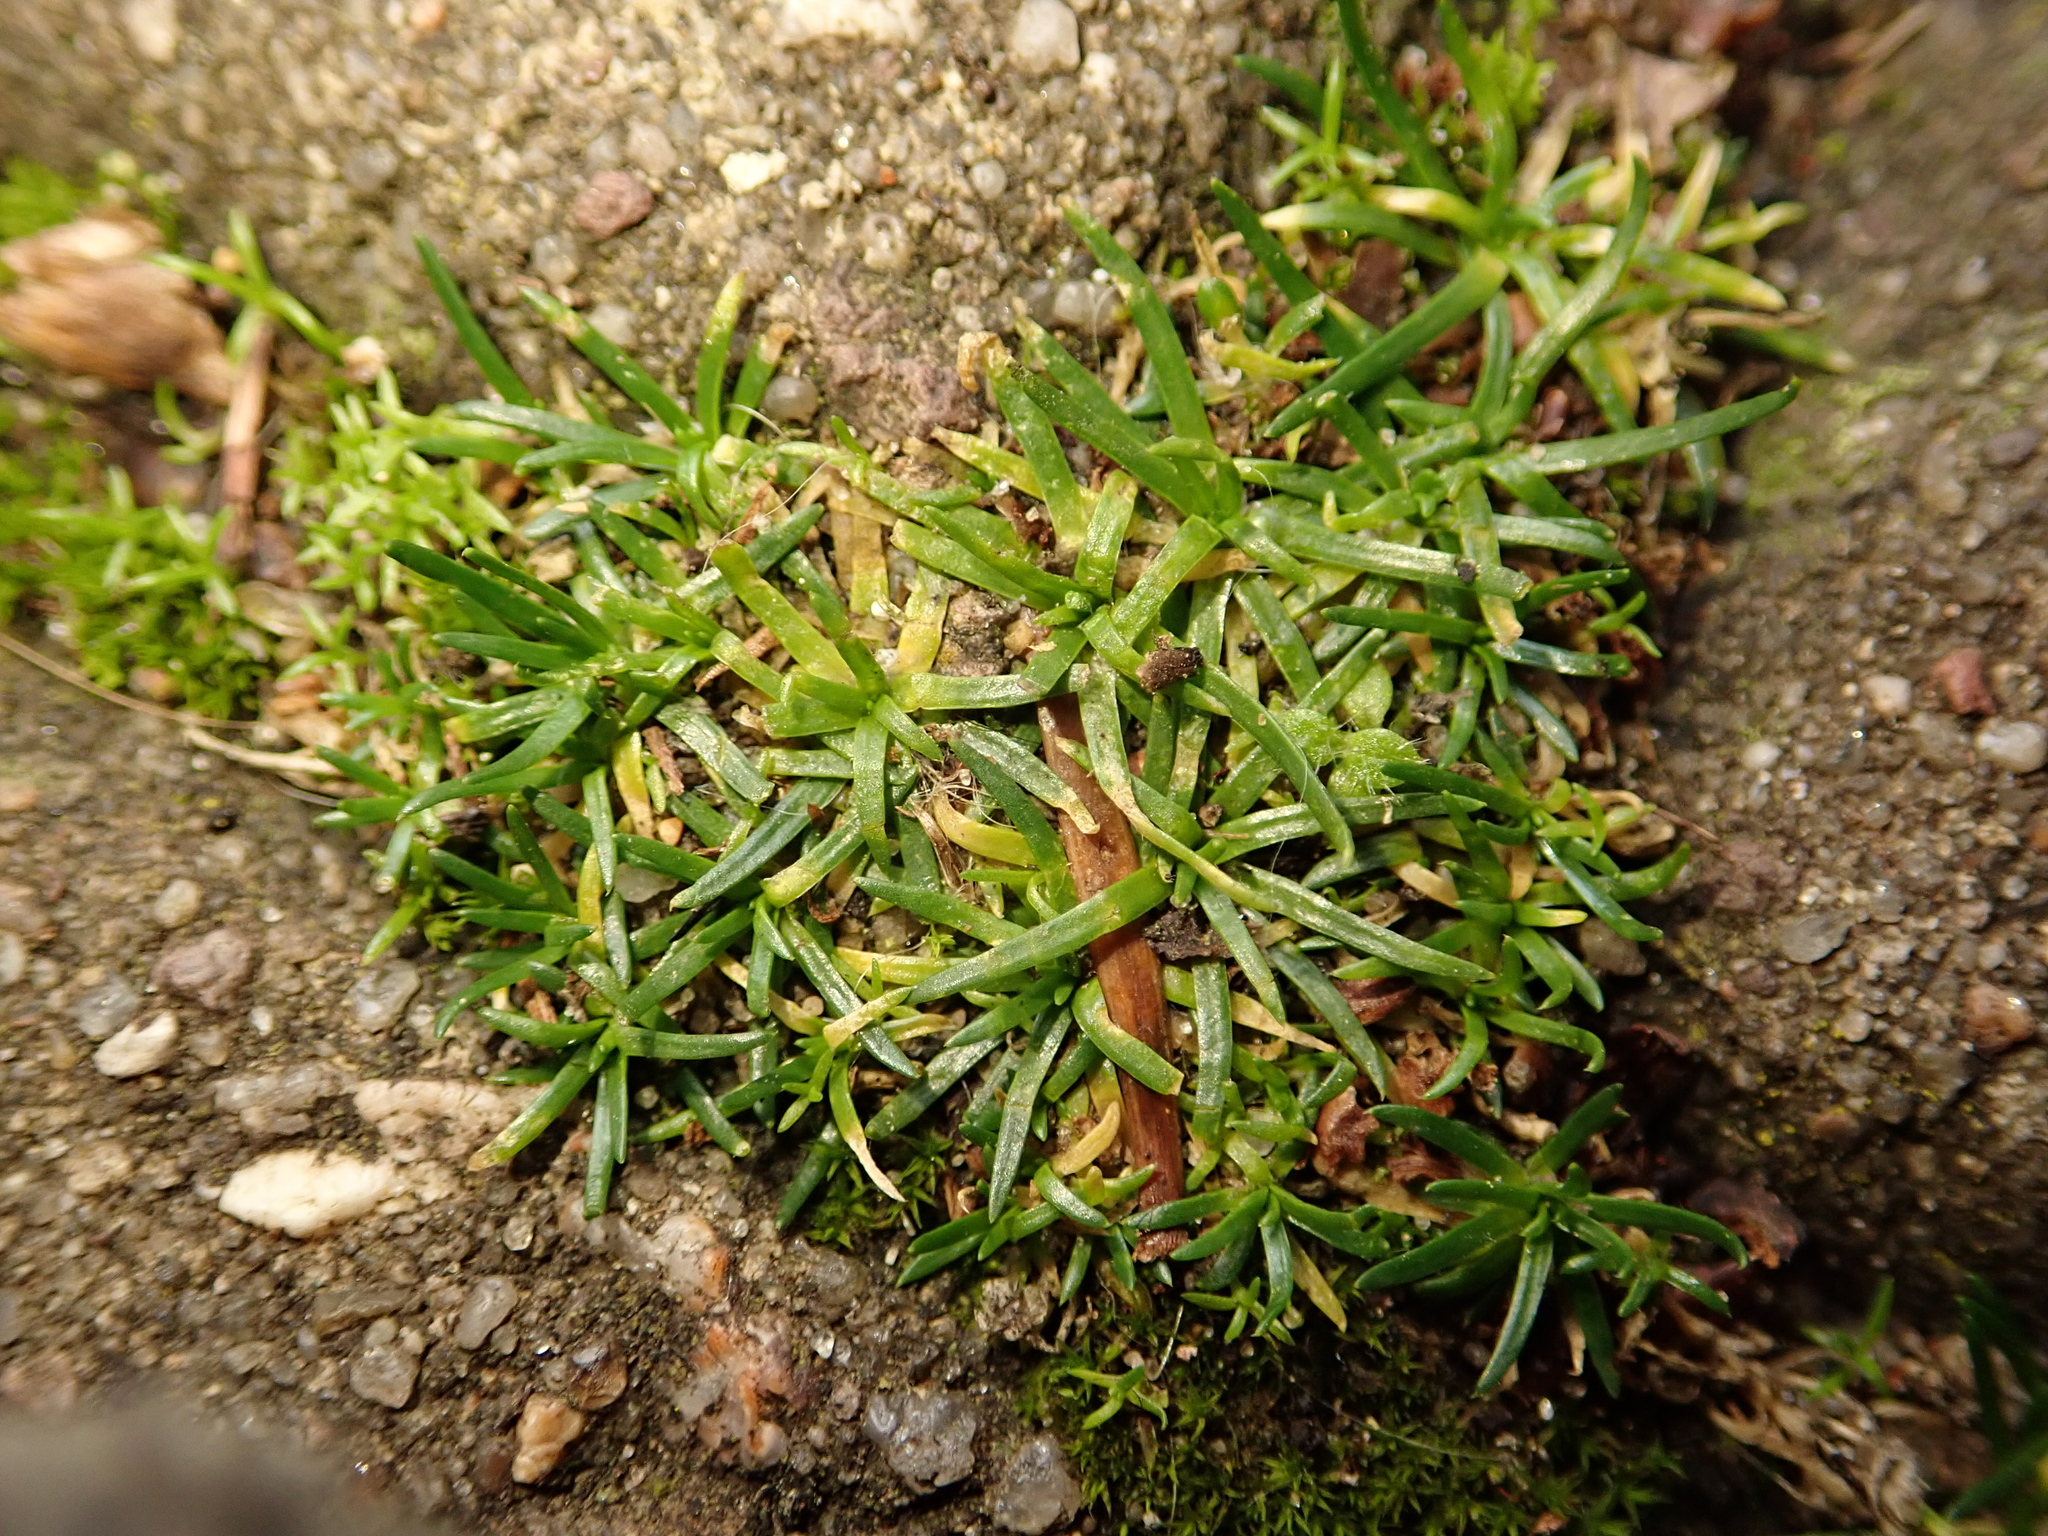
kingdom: Plantae
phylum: Tracheophyta
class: Magnoliopsida
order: Caryophyllales
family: Caryophyllaceae
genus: Sagina
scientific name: Sagina procumbens
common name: Procumbent pearlwort
